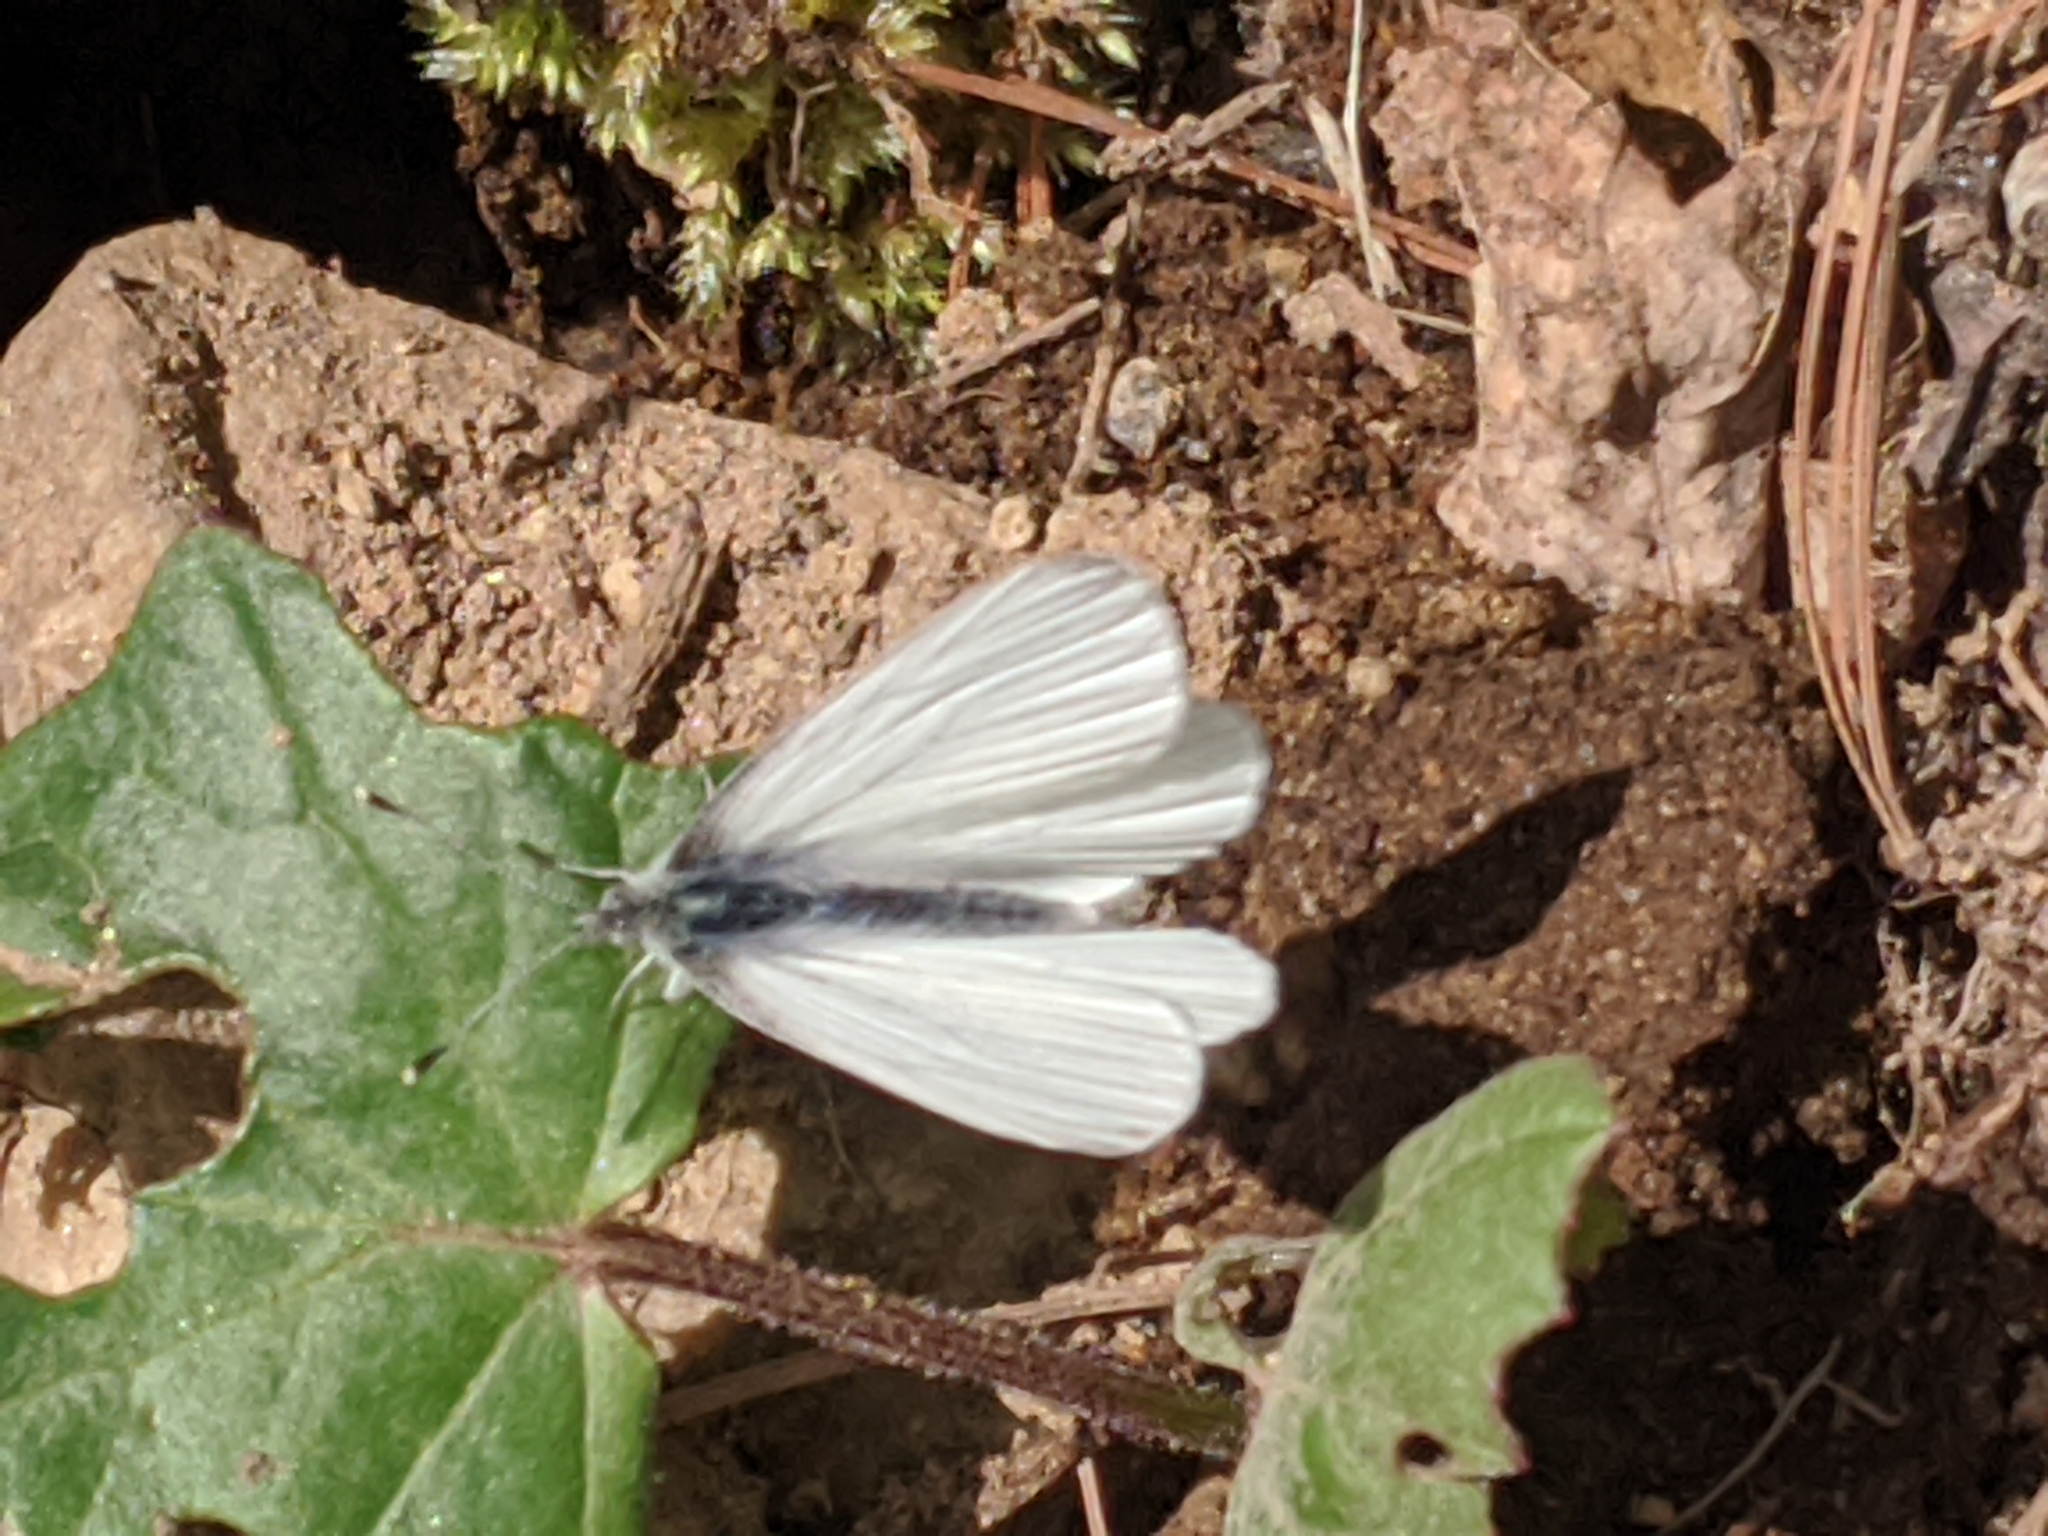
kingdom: Animalia
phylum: Arthropoda
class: Insecta
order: Lepidoptera
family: Pieridae
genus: Pieris
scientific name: Pieris virginiensis
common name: West virginia white
